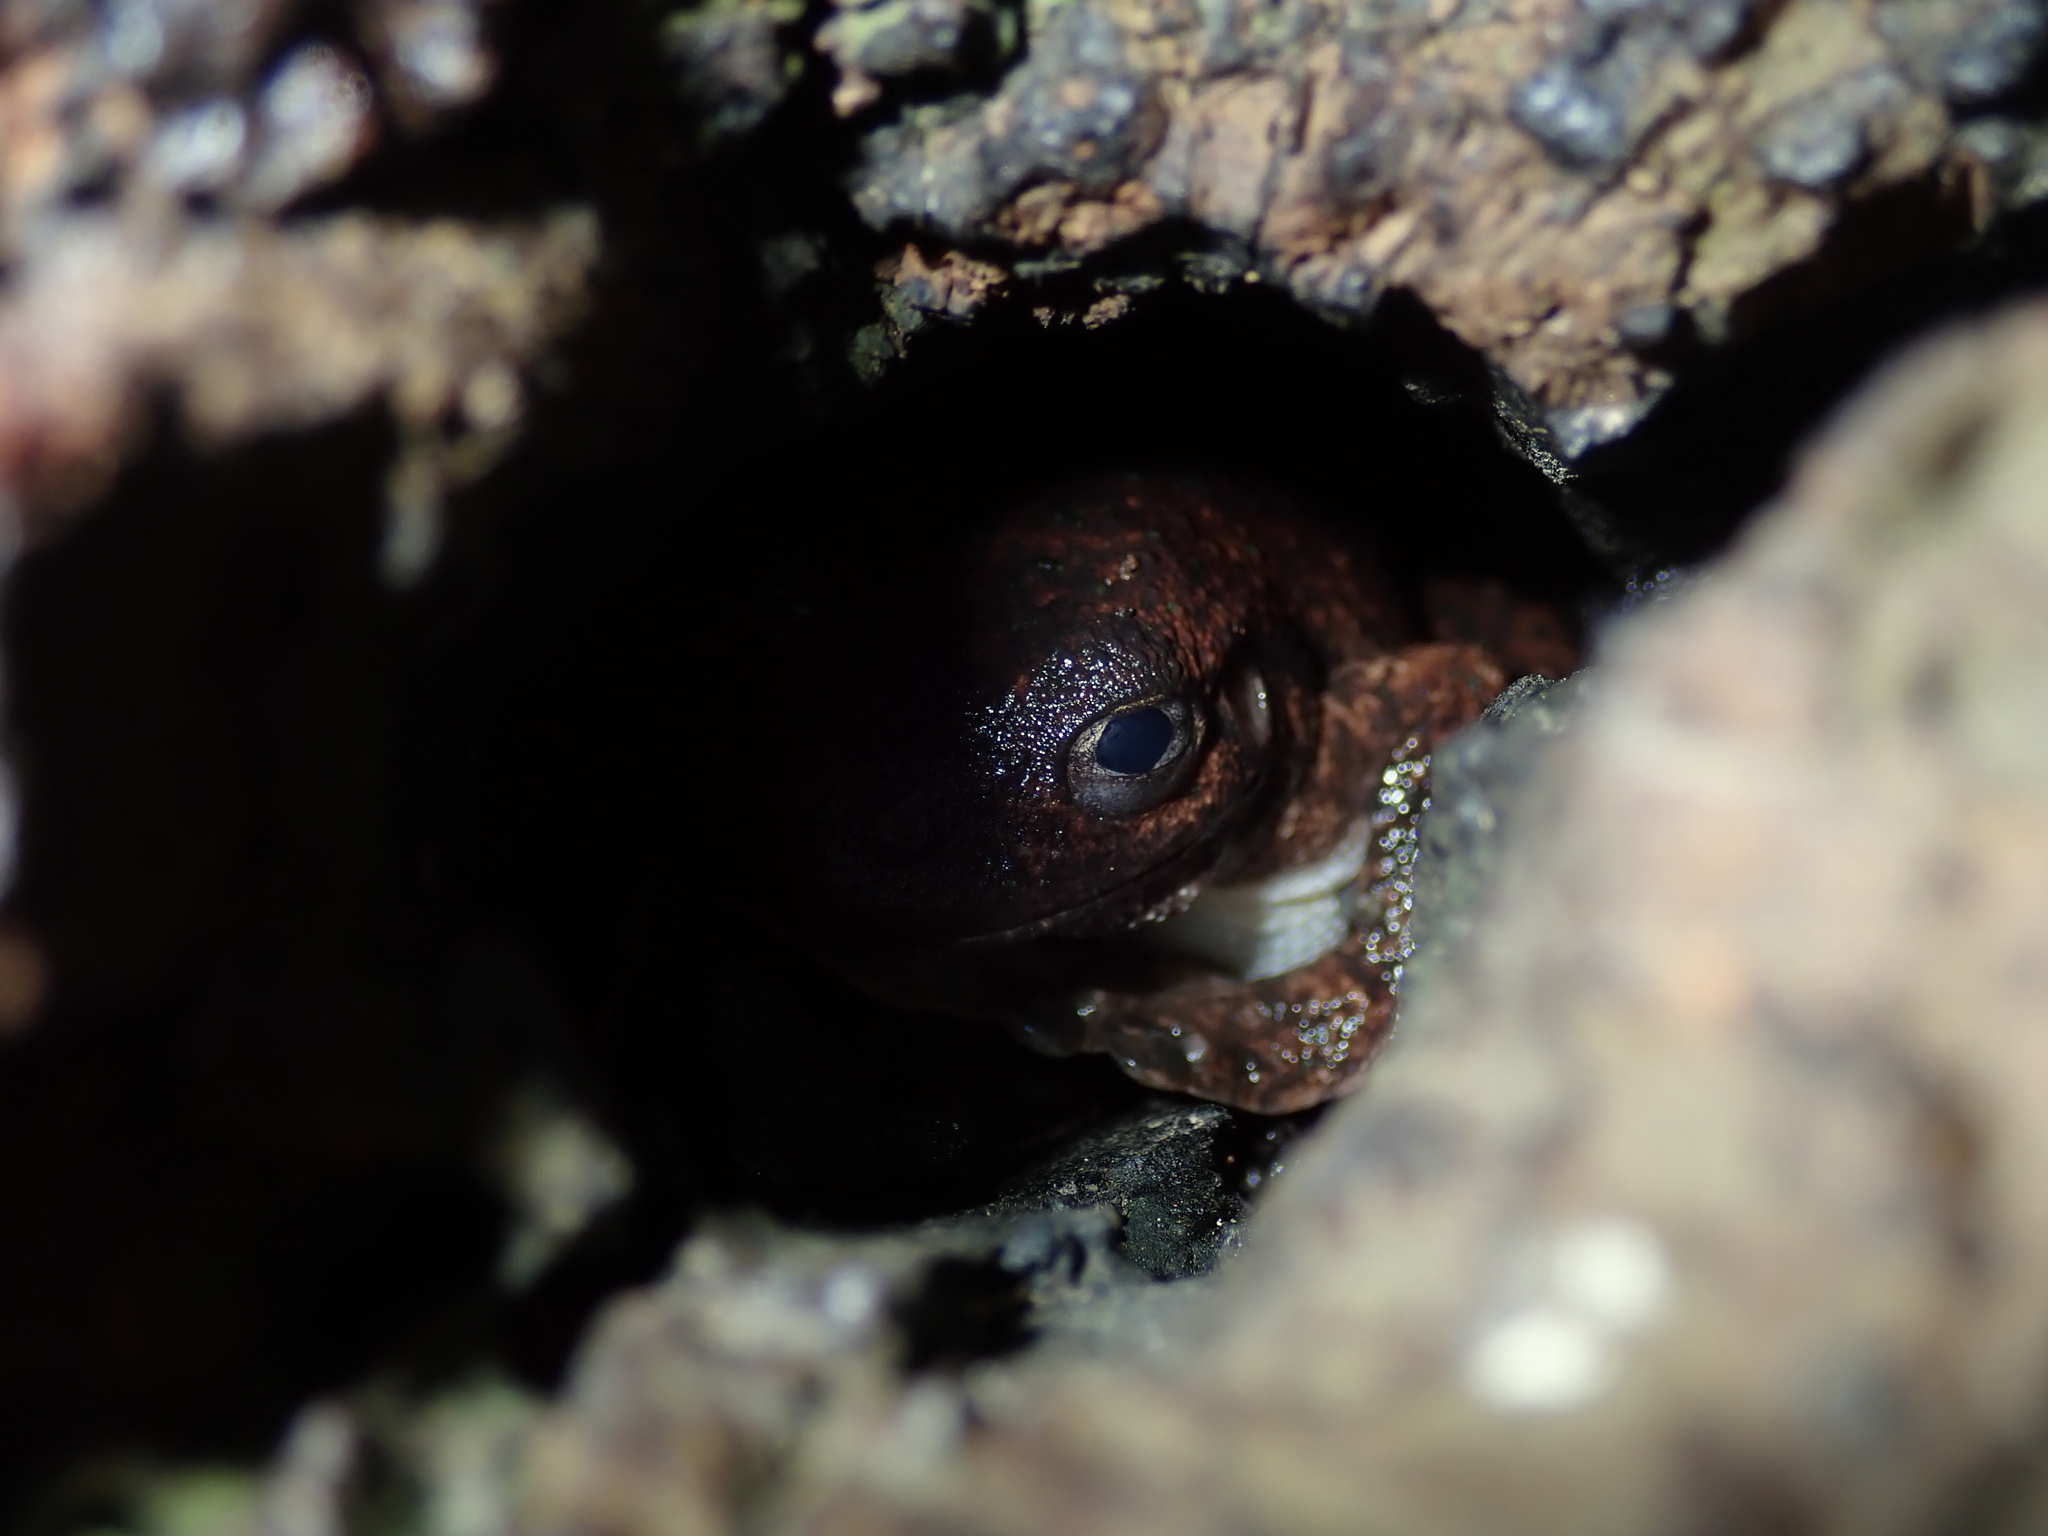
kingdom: Animalia
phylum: Chordata
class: Amphibia
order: Anura
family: Pelodryadidae
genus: Litoria
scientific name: Litoria peronii
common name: Emerald spotted treefrog
